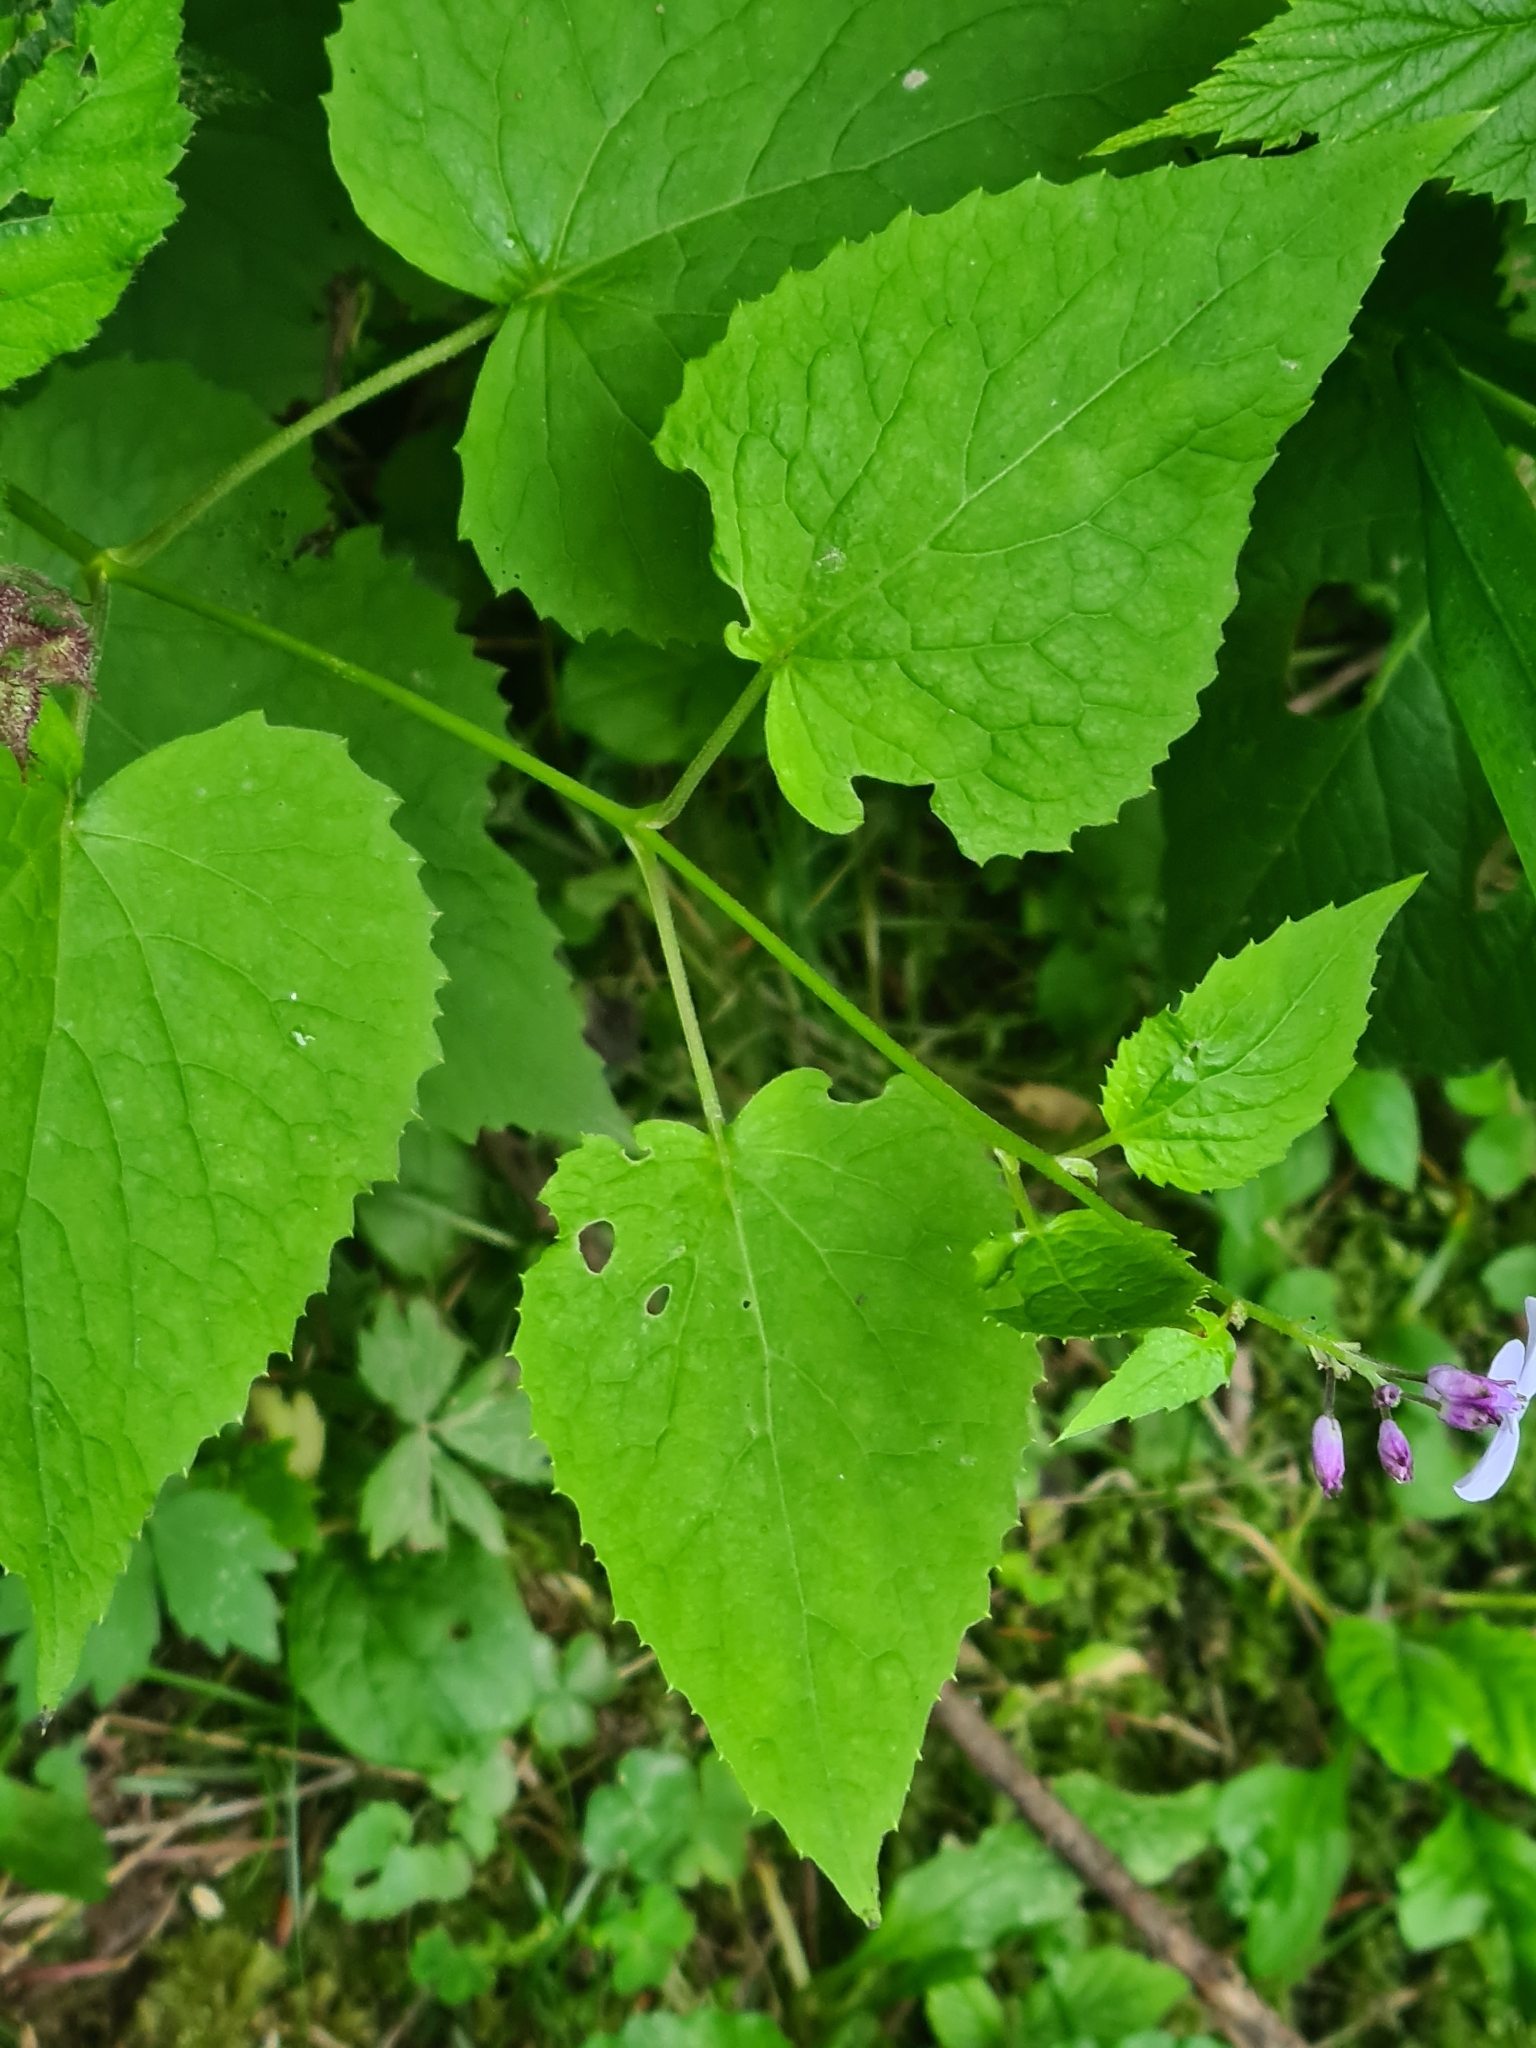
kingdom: Plantae
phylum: Tracheophyta
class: Magnoliopsida
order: Brassicales
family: Brassicaceae
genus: Lunaria
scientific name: Lunaria rediviva
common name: Perennial honesty
